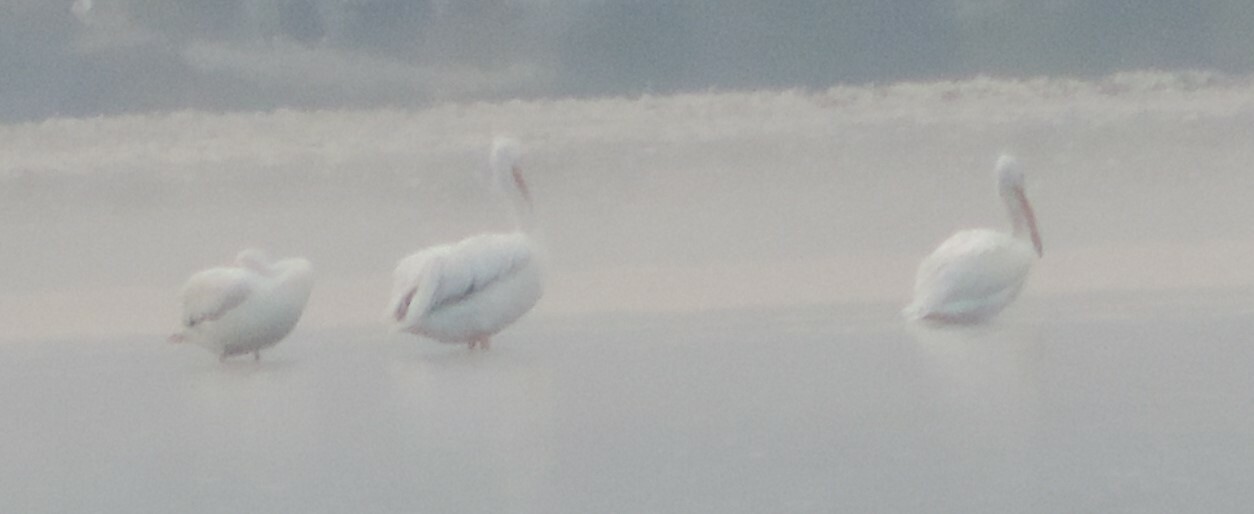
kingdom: Animalia
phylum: Chordata
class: Aves
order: Pelecaniformes
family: Pelecanidae
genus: Pelecanus
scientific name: Pelecanus erythrorhynchos
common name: American white pelican
